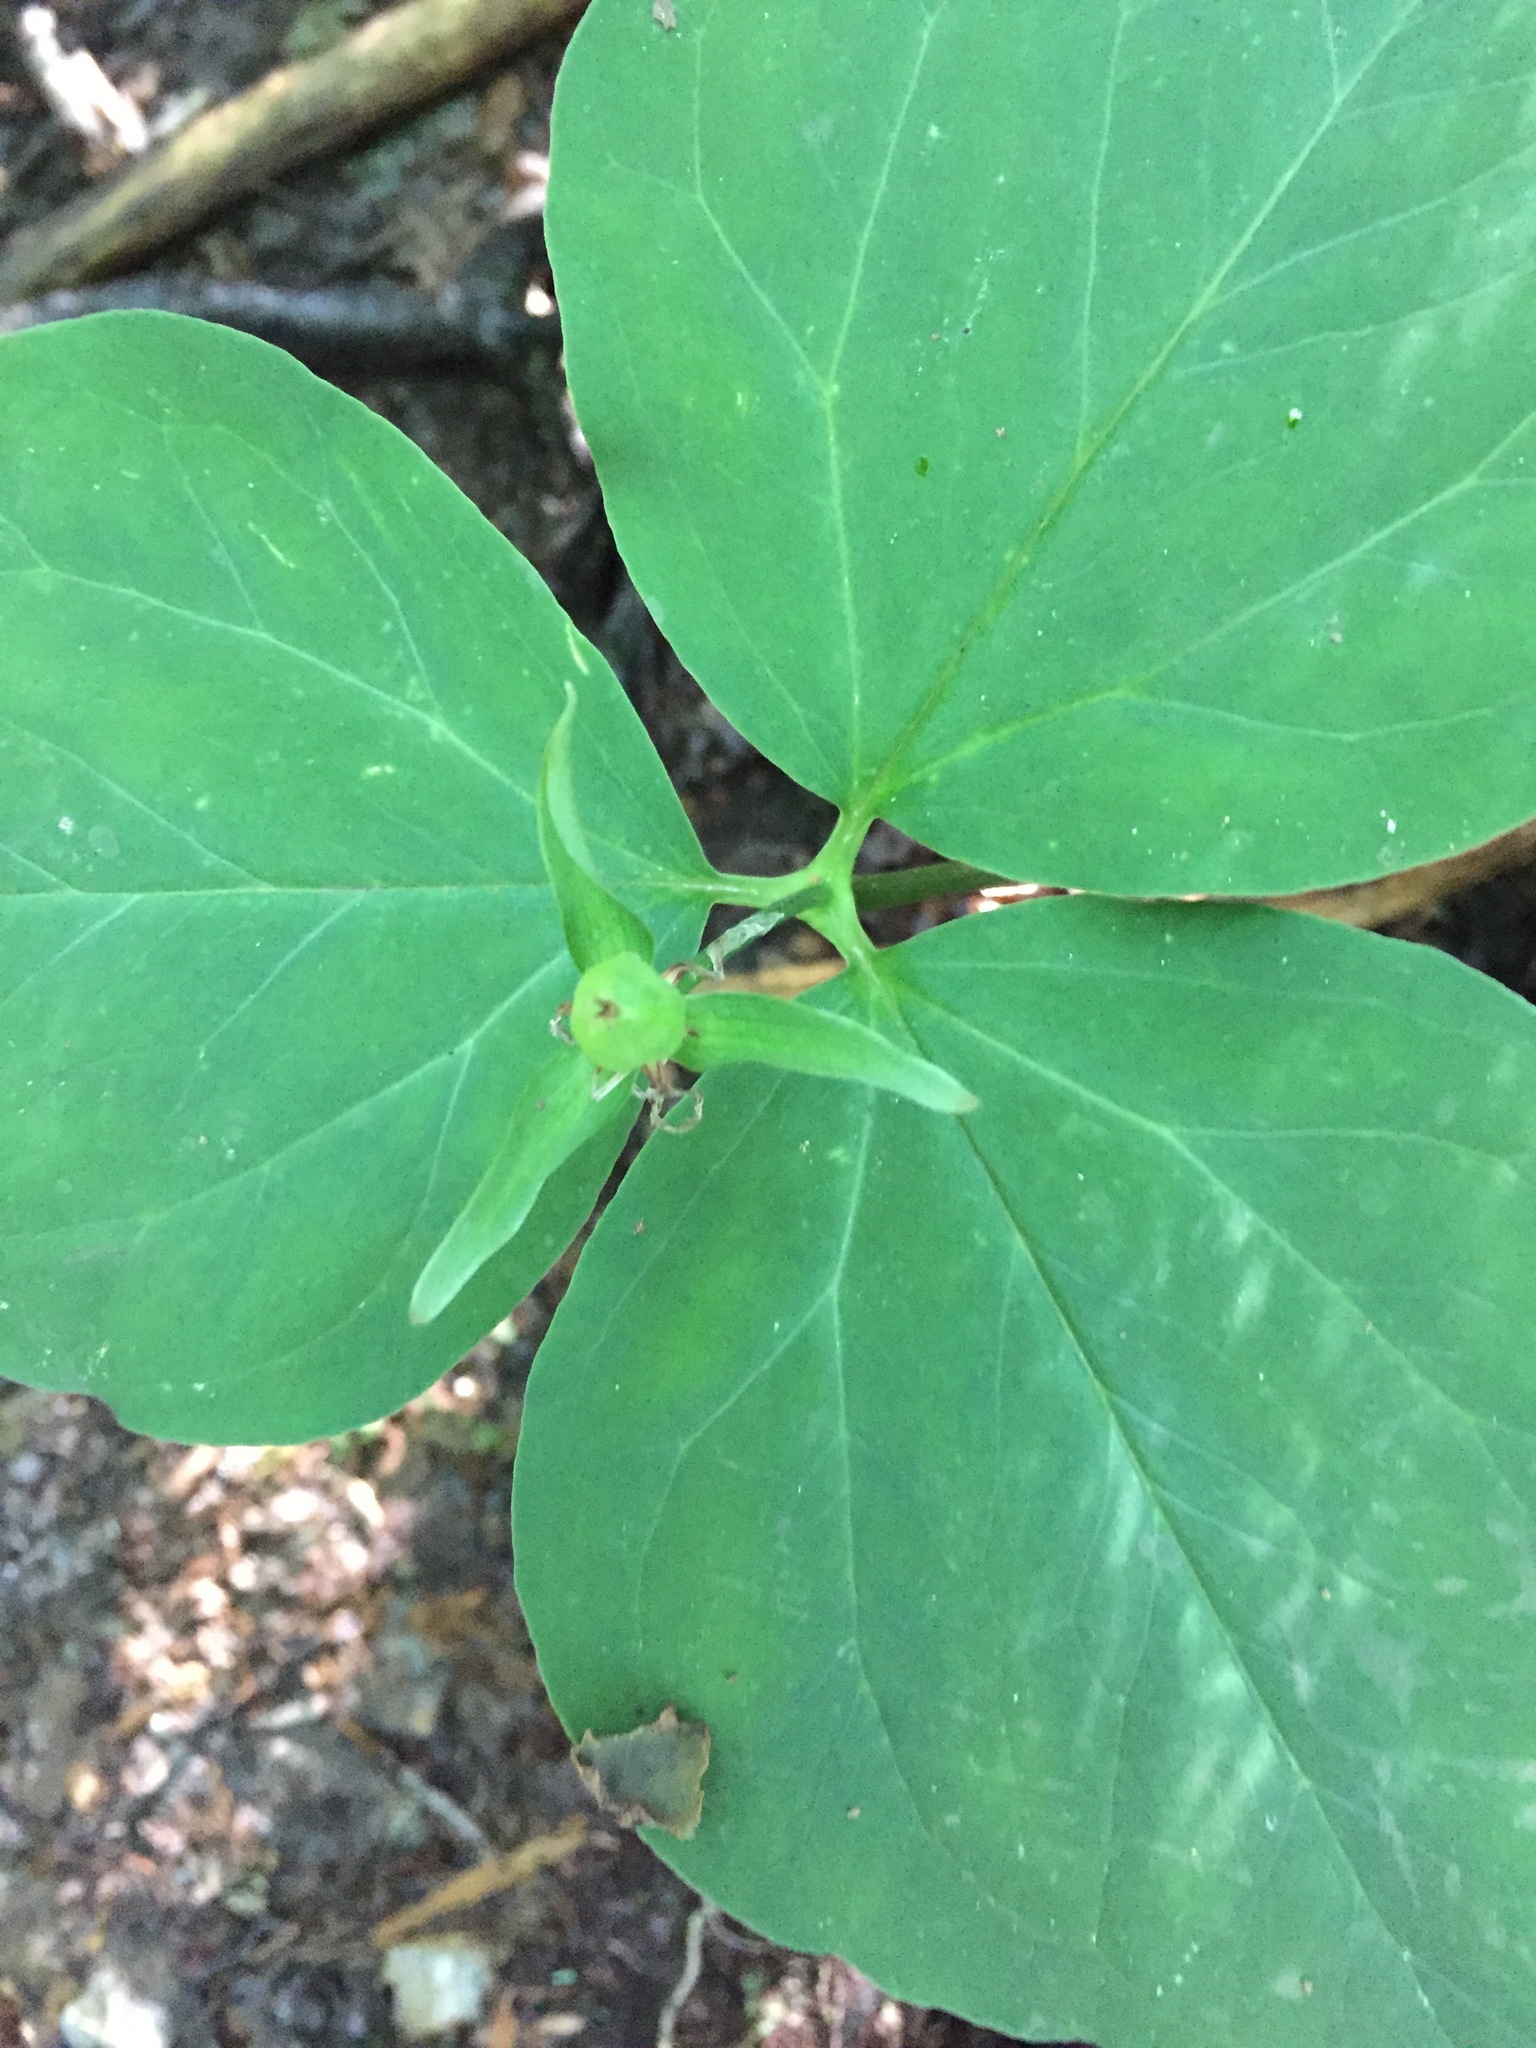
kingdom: Plantae
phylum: Tracheophyta
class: Liliopsida
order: Liliales
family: Melanthiaceae
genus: Trillium
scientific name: Trillium undulatum
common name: Paint trillium
